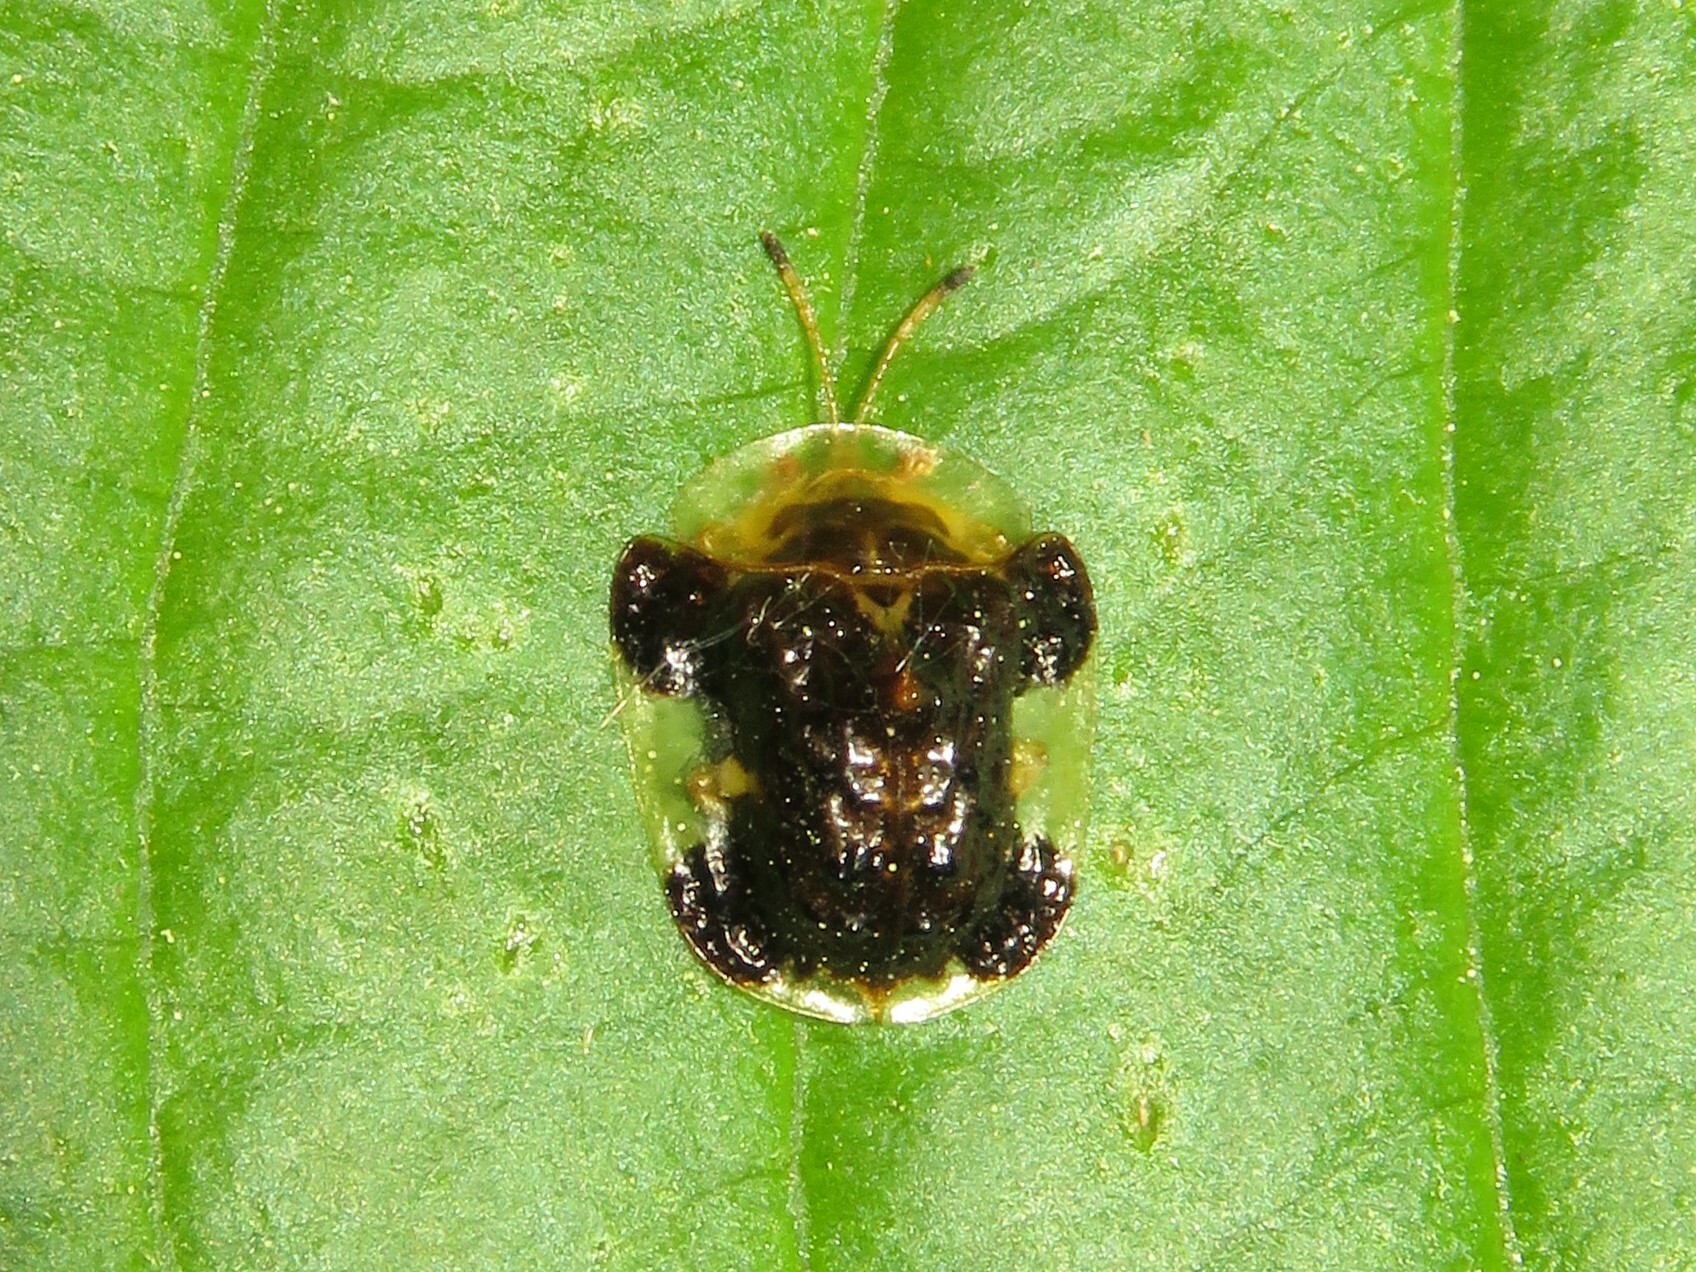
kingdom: Animalia
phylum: Arthropoda
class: Insecta
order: Coleoptera
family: Chrysomelidae
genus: Helocassis
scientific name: Helocassis clavata
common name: Clavate tortoise beetle
